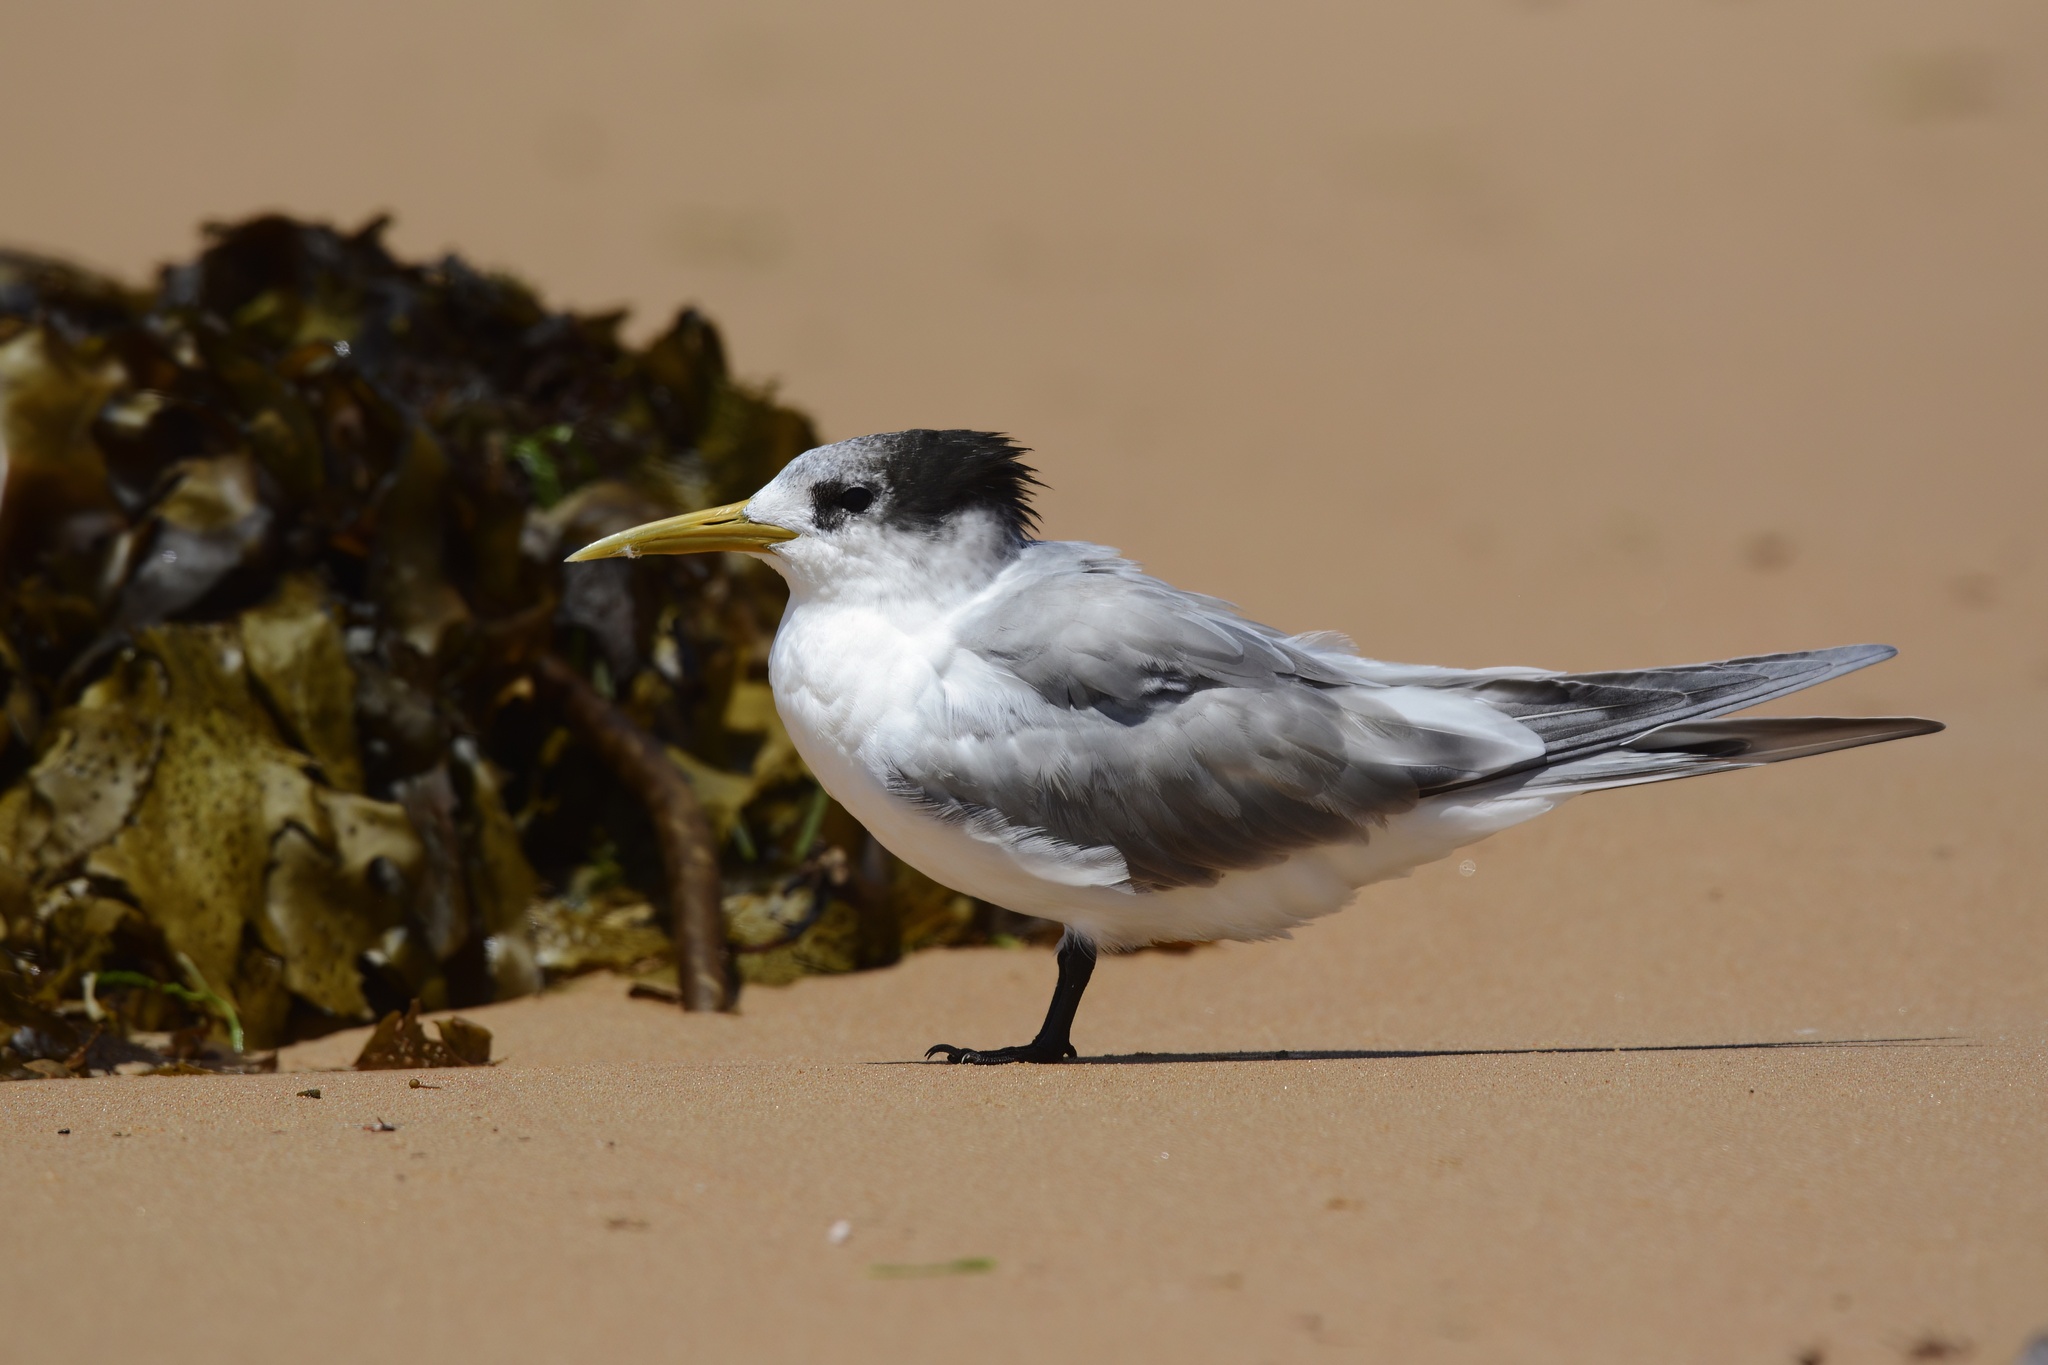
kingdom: Animalia
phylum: Chordata
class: Aves
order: Charadriiformes
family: Laridae
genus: Thalasseus
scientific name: Thalasseus bergii
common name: Greater crested tern
